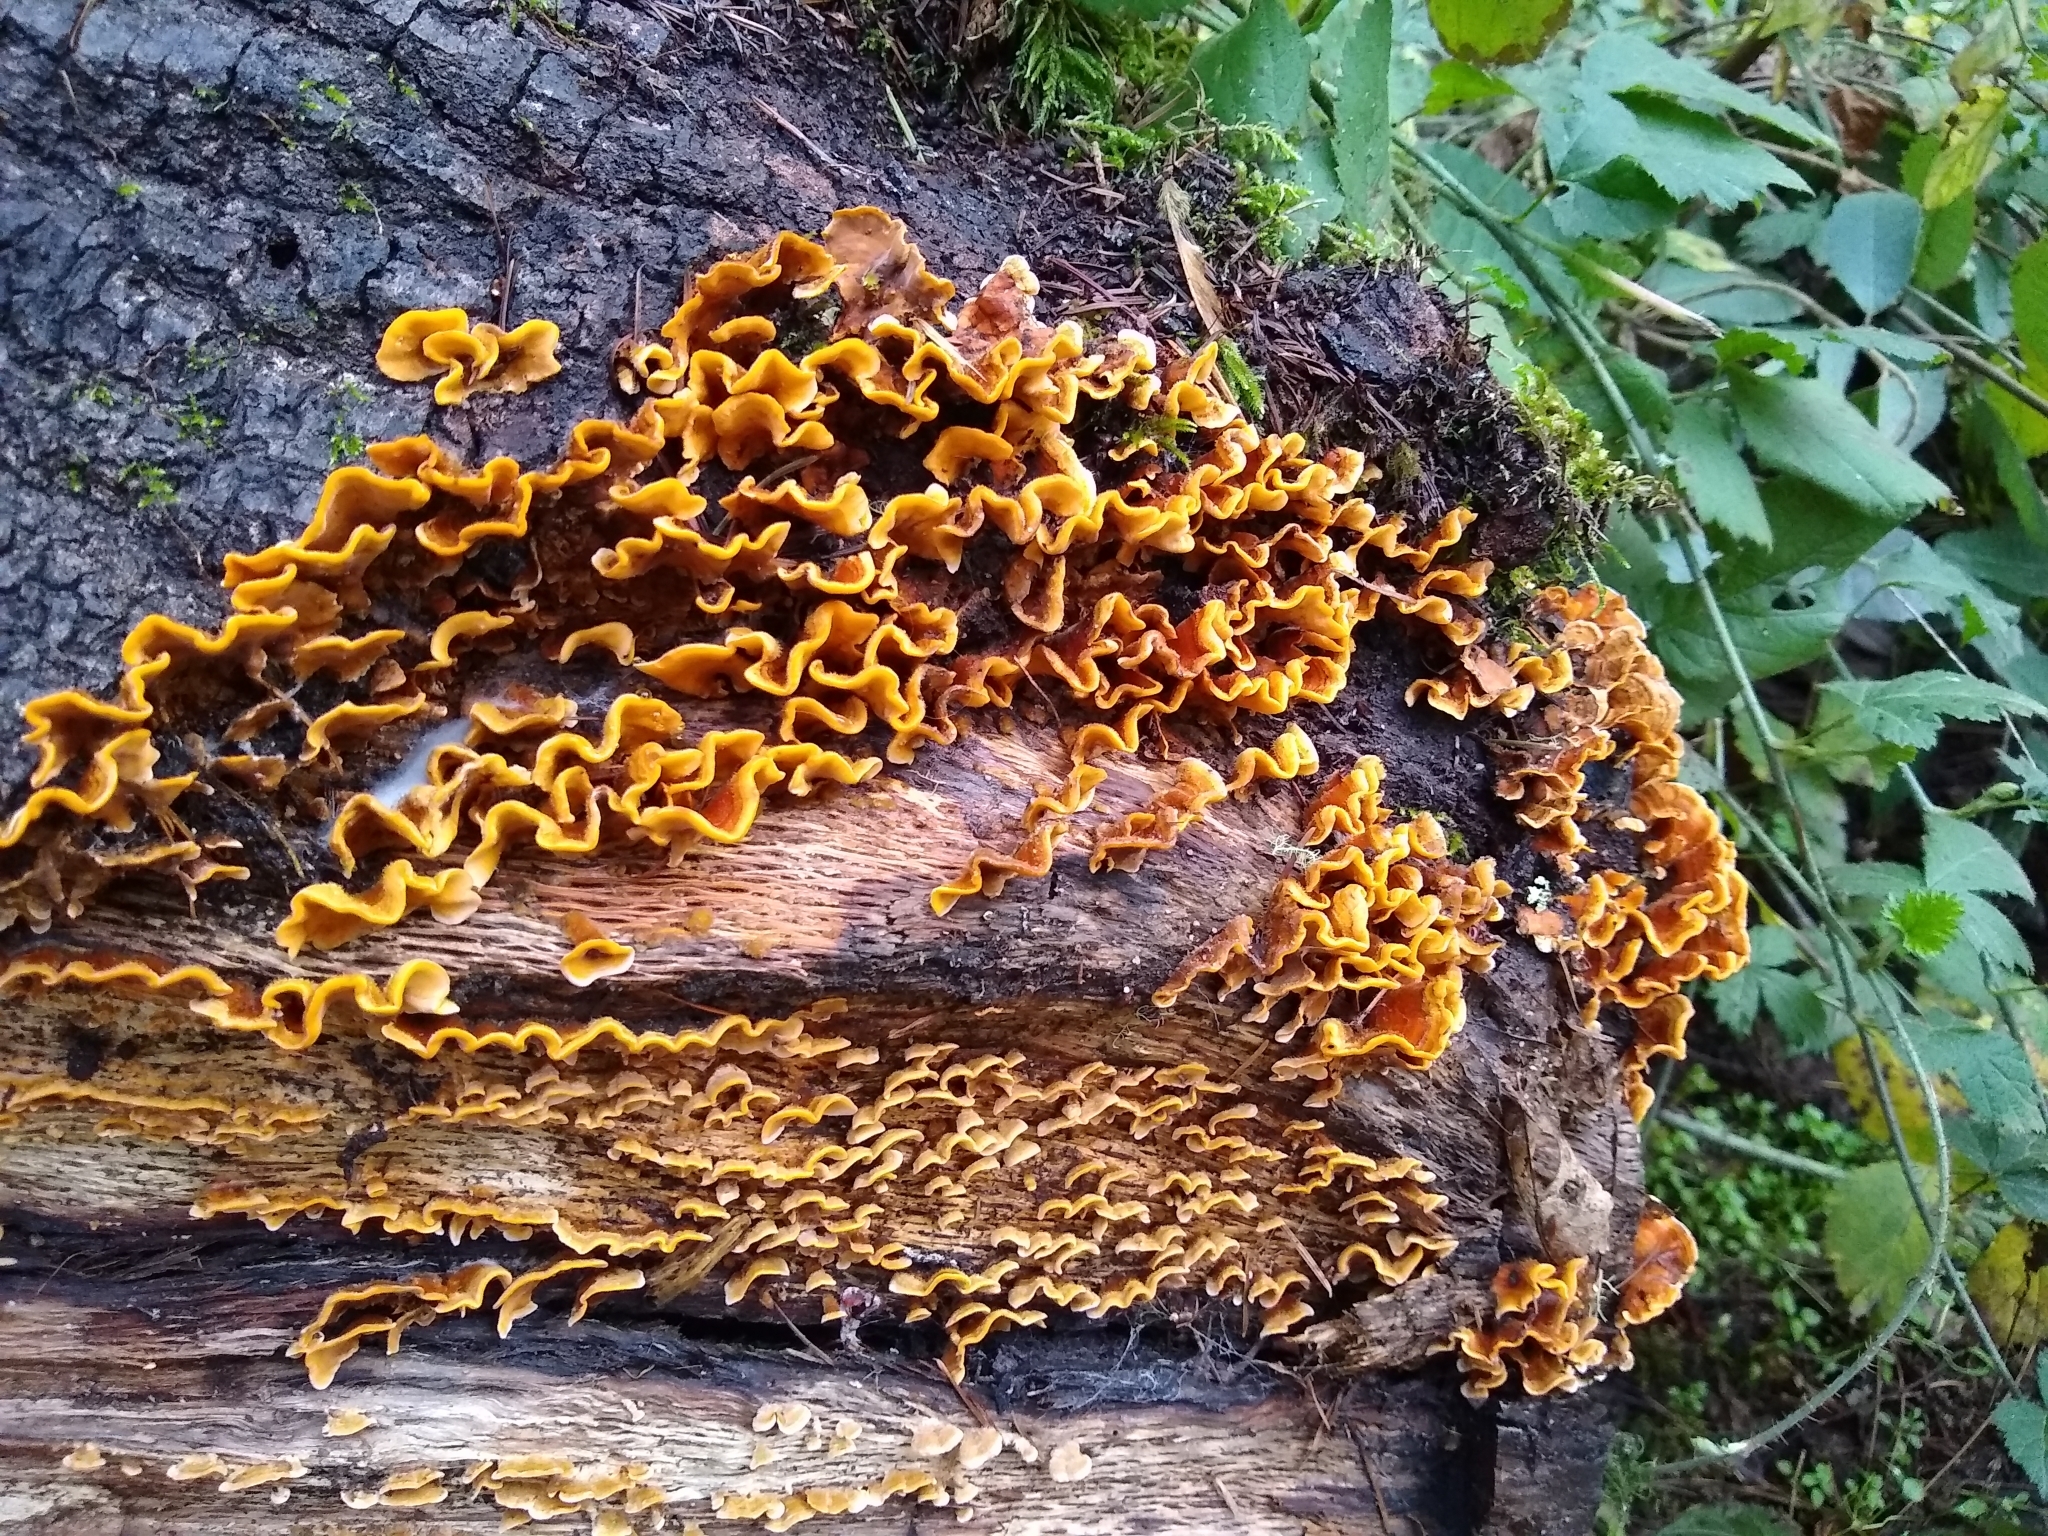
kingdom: Fungi
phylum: Basidiomycota
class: Agaricomycetes
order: Russulales
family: Stereaceae
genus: Stereum
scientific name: Stereum hirsutum
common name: Hairy curtain crust
